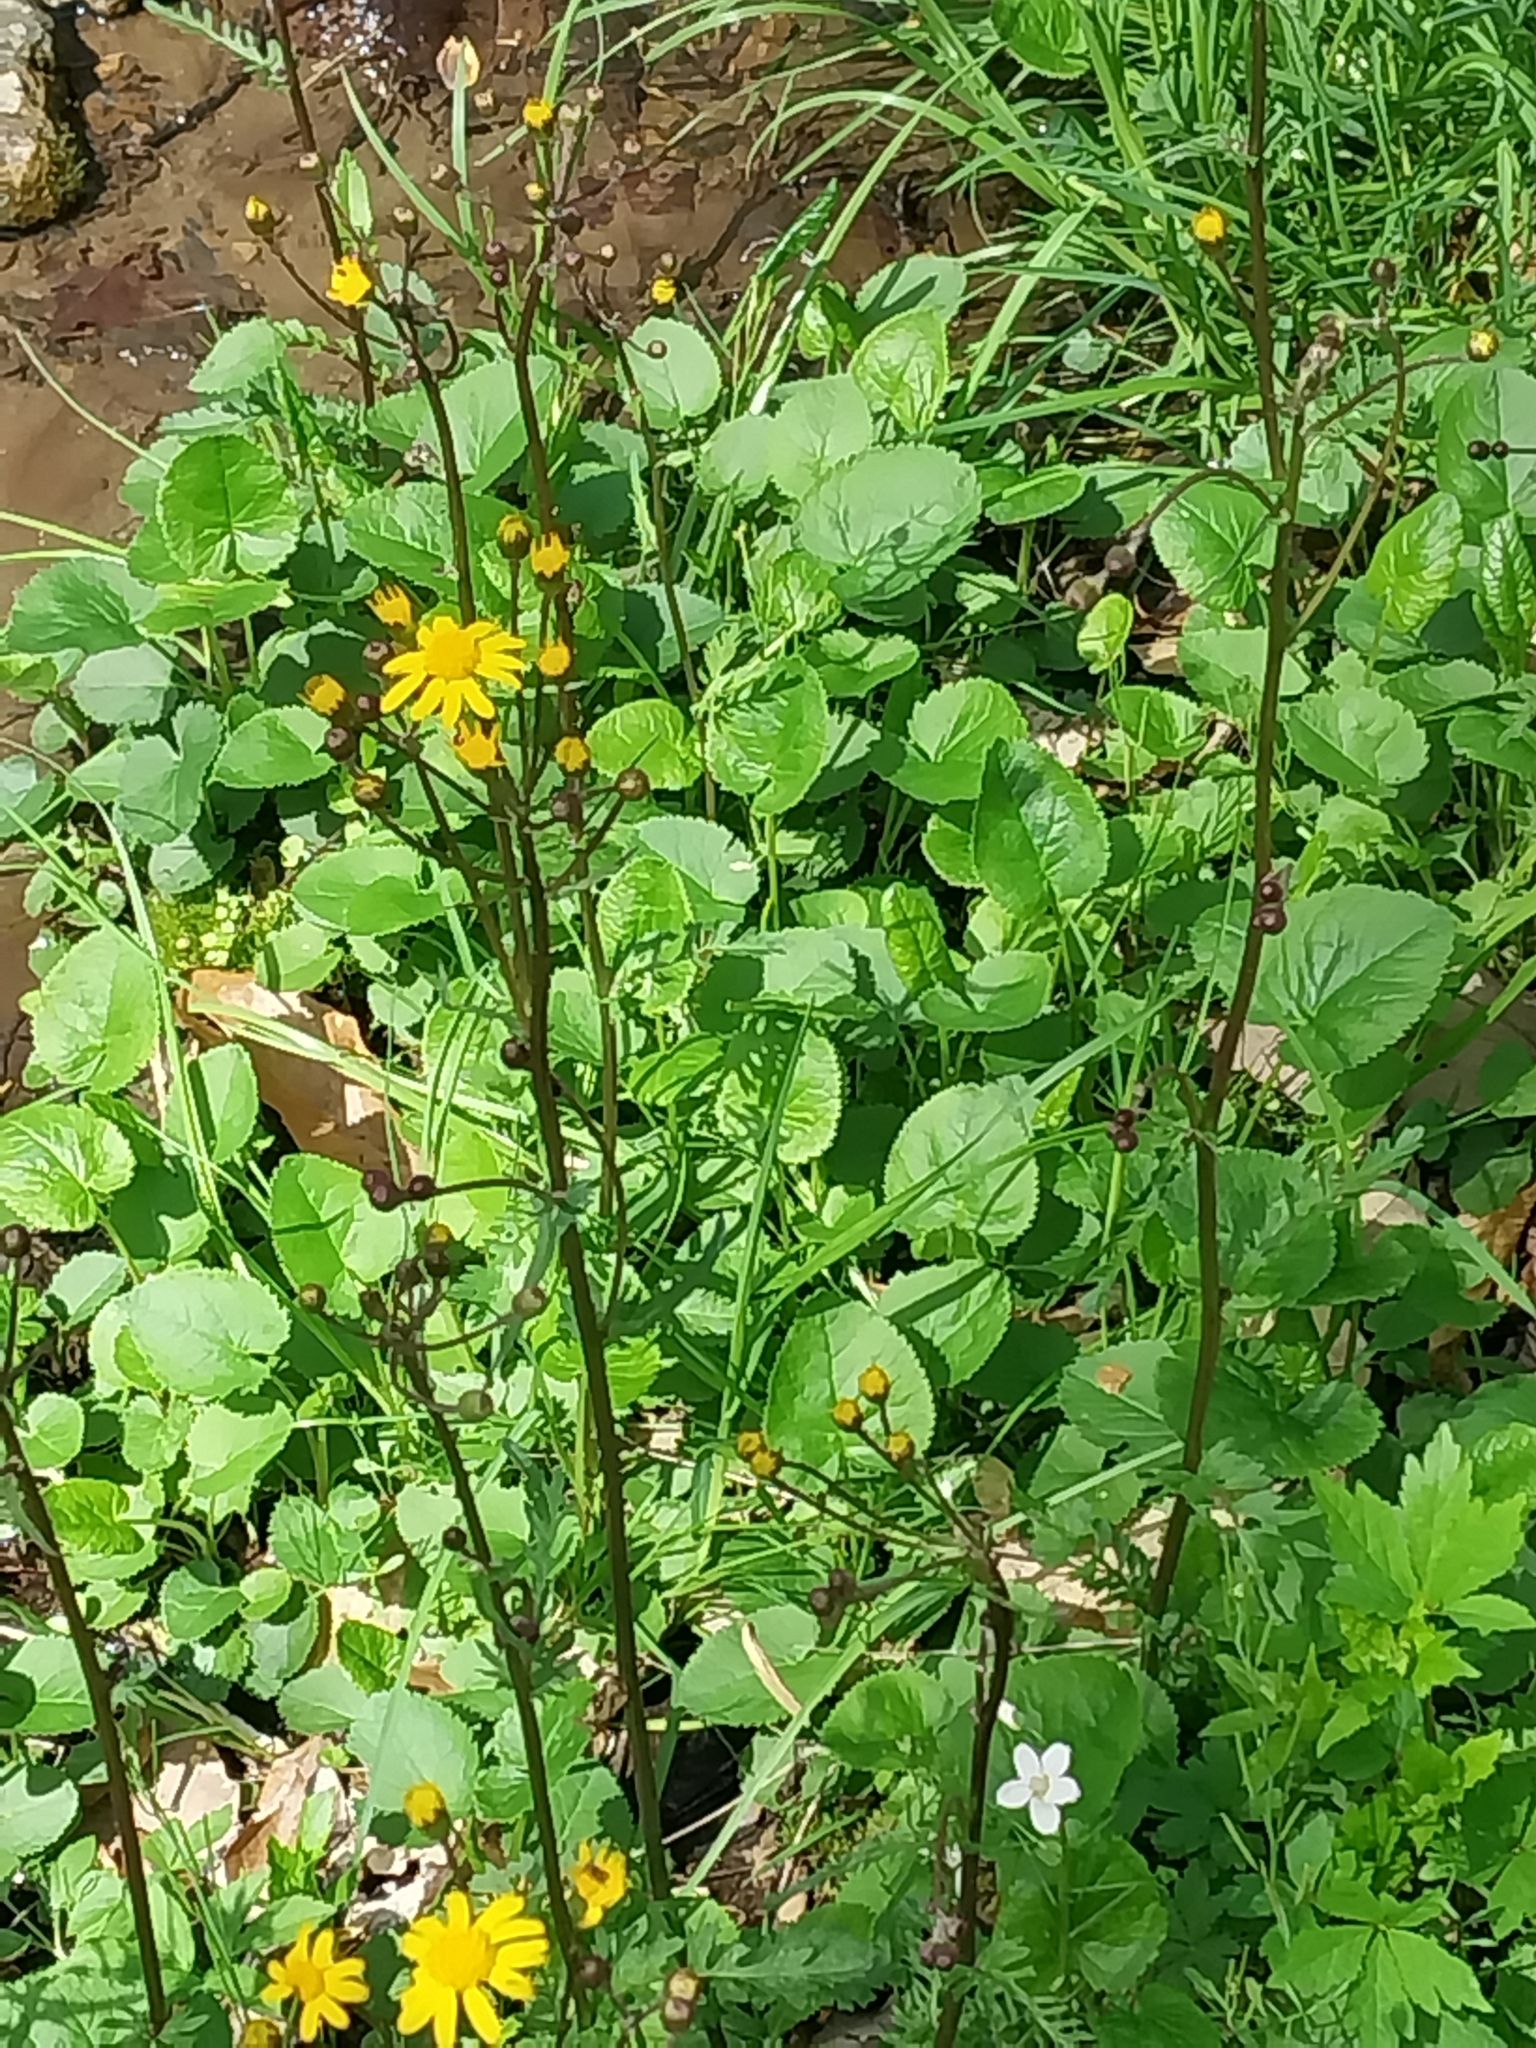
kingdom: Plantae
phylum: Tracheophyta
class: Magnoliopsida
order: Asterales
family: Asteraceae
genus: Packera
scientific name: Packera aurea
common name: Golden groundsel
